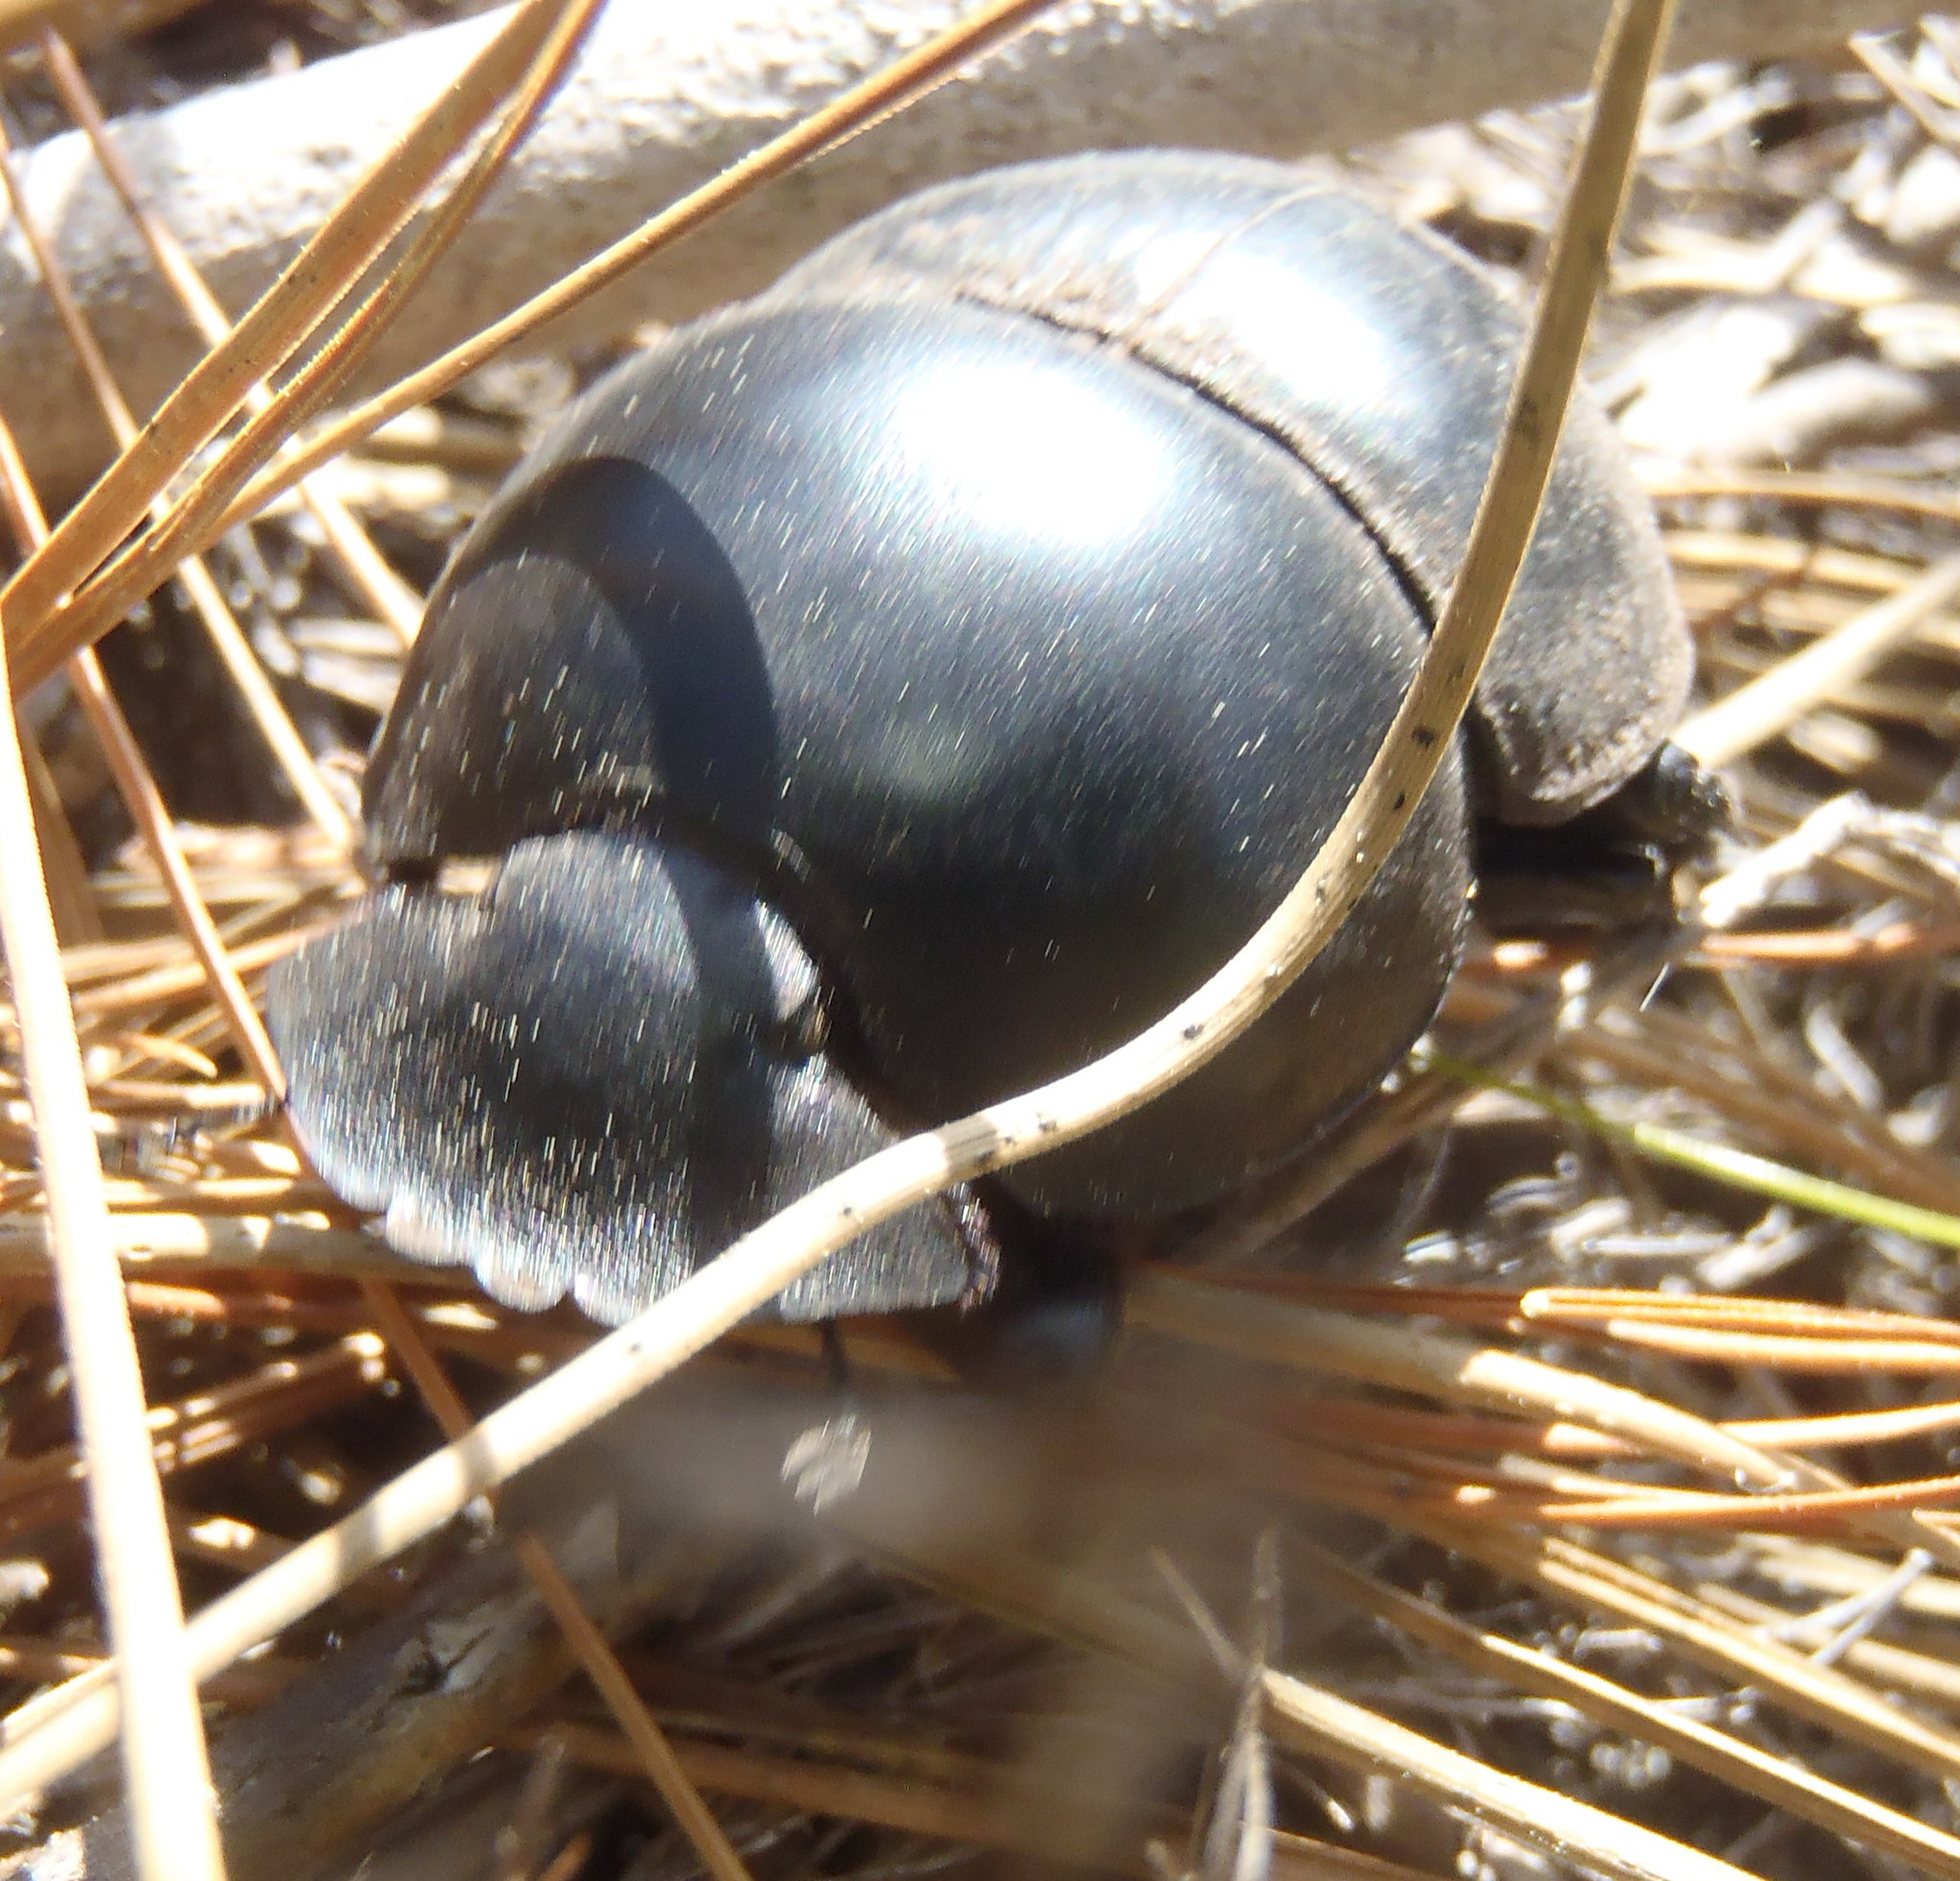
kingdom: Animalia
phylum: Arthropoda
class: Insecta
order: Coleoptera
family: Scarabaeidae
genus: Circellium
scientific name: Circellium bacchus
